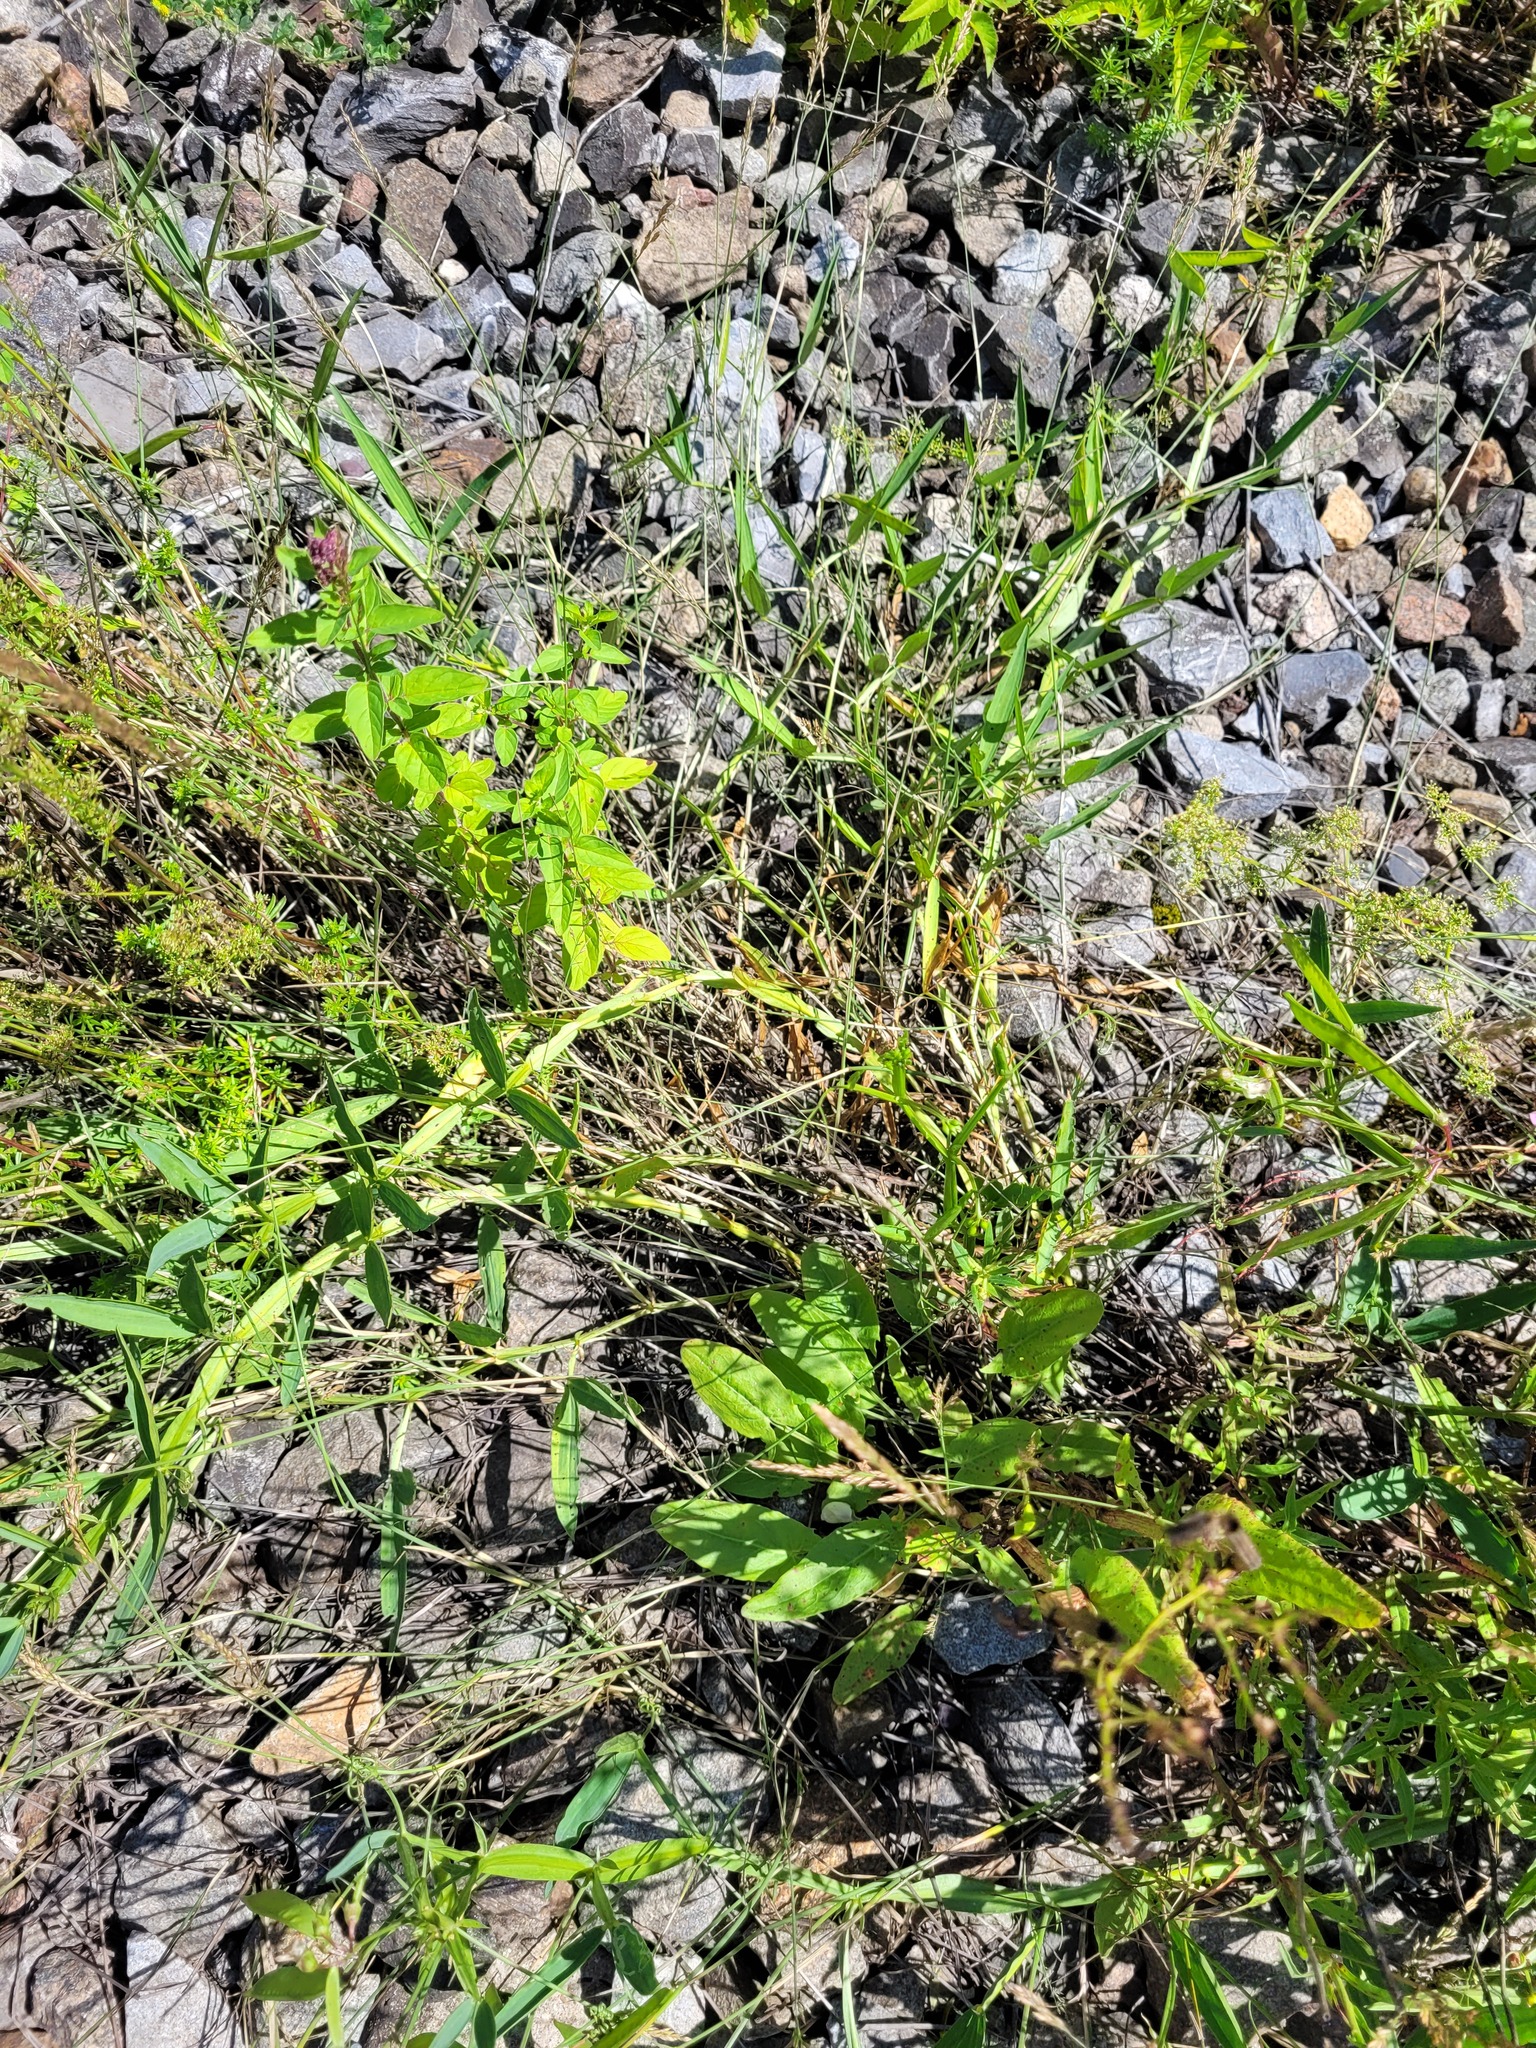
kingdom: Plantae
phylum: Tracheophyta
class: Magnoliopsida
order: Fabales
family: Fabaceae
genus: Lathyrus
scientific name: Lathyrus sylvestris
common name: Flat pea
